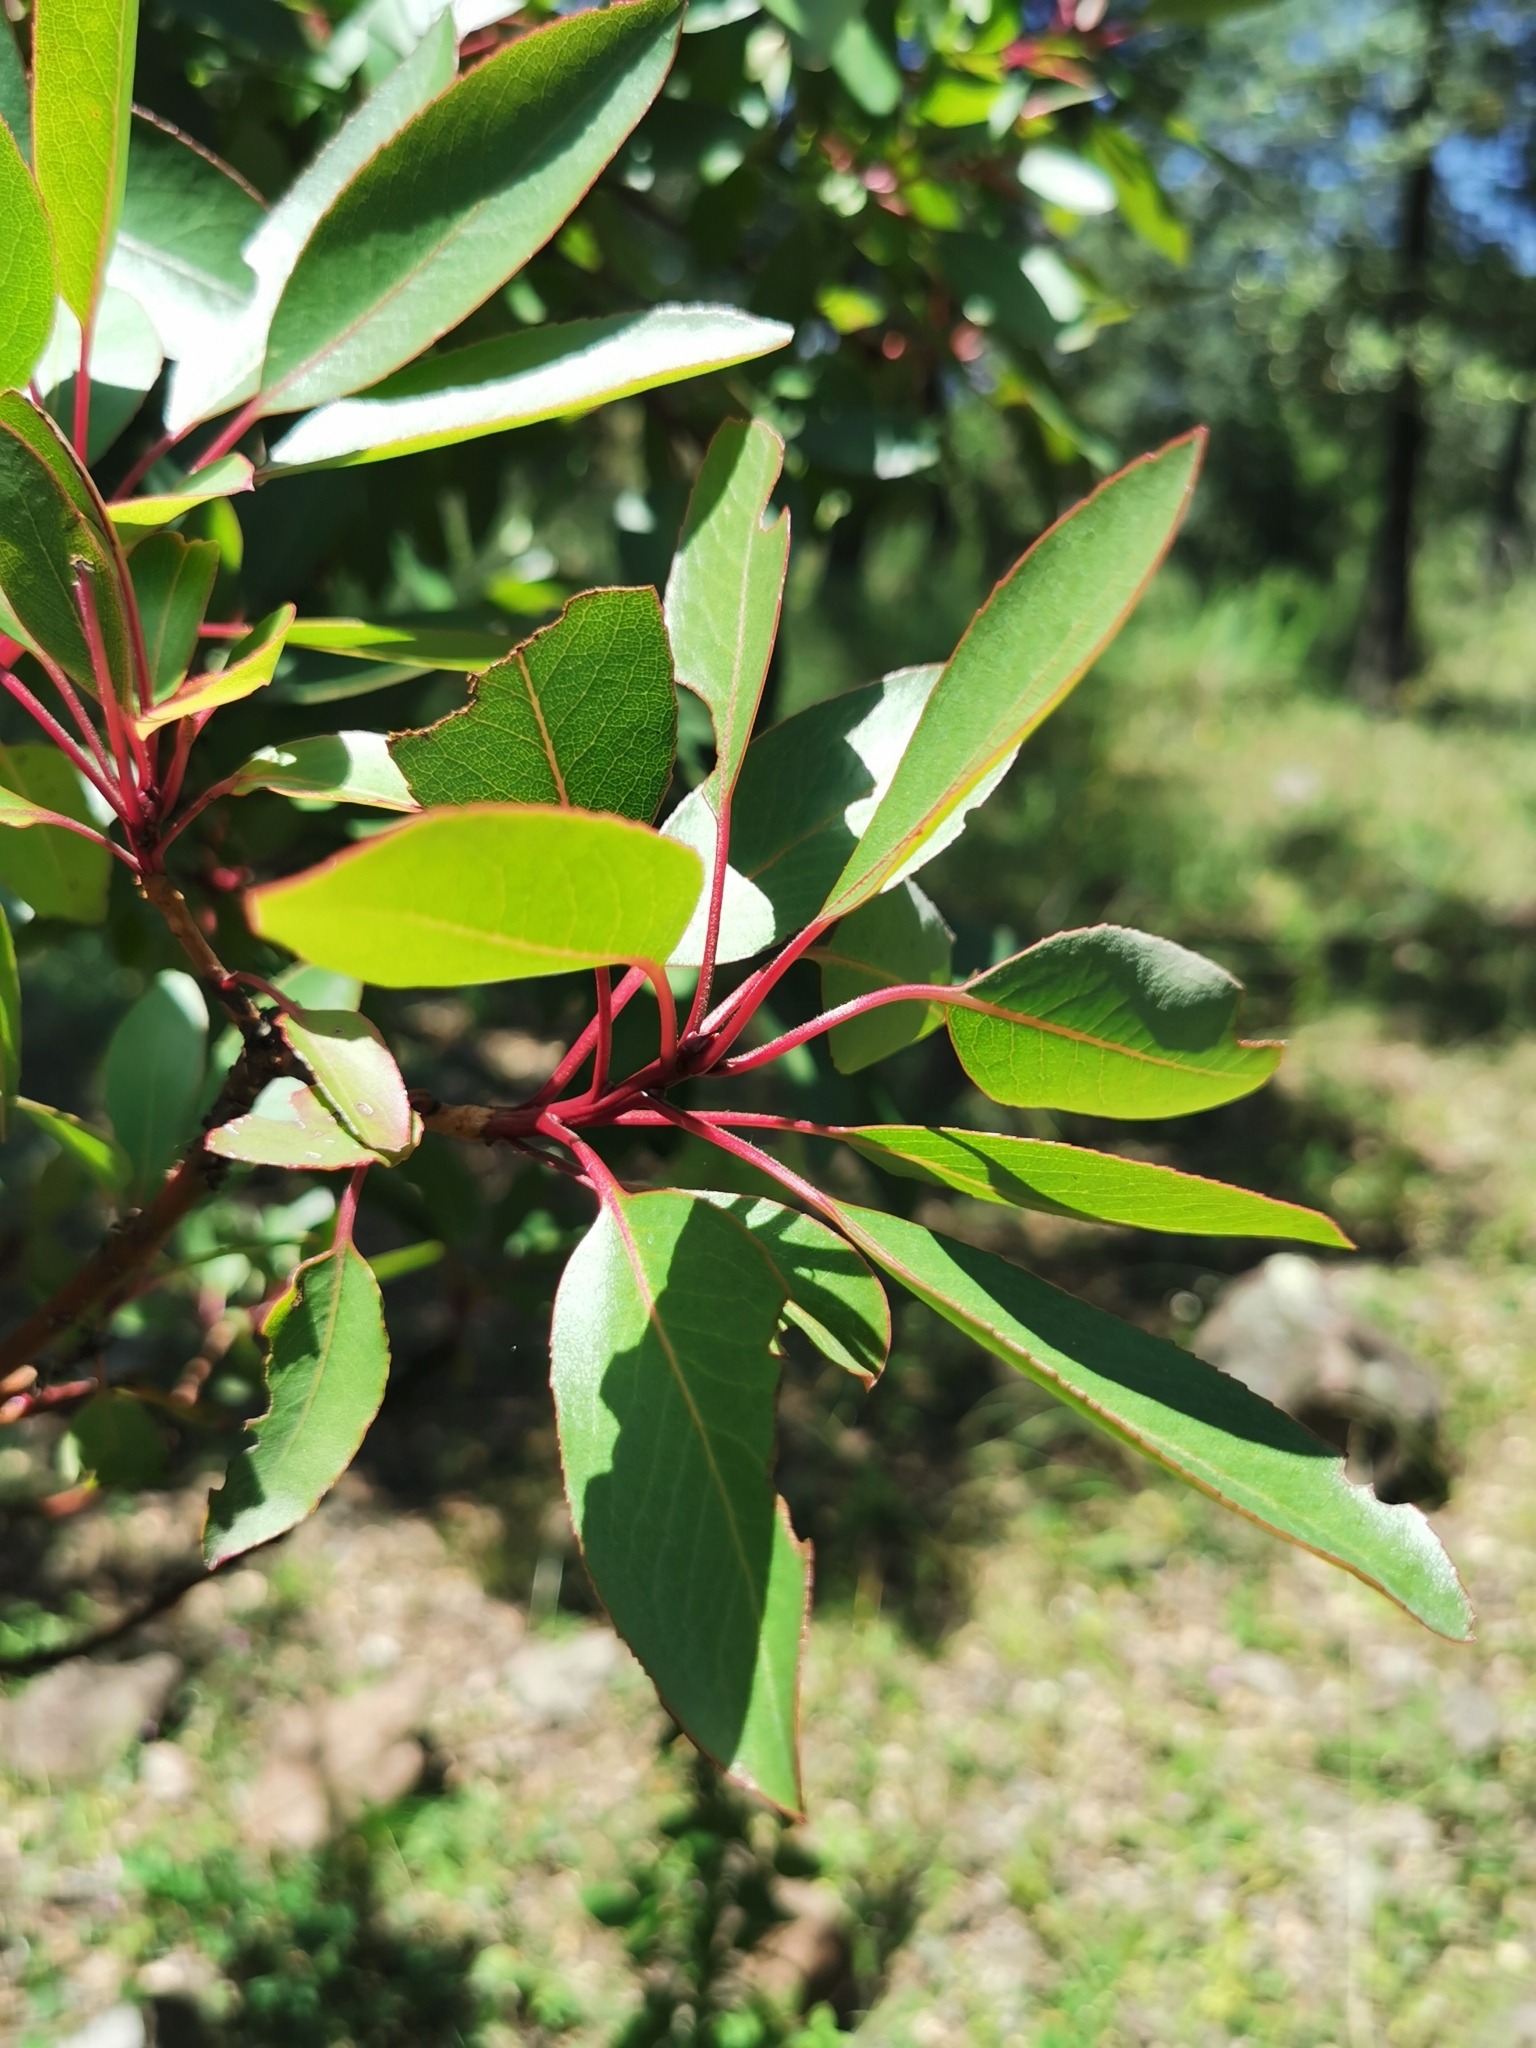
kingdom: Plantae
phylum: Tracheophyta
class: Magnoliopsida
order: Ericales
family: Ericaceae
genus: Arbutus
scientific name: Arbutus arizonica
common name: Arizona madrone
